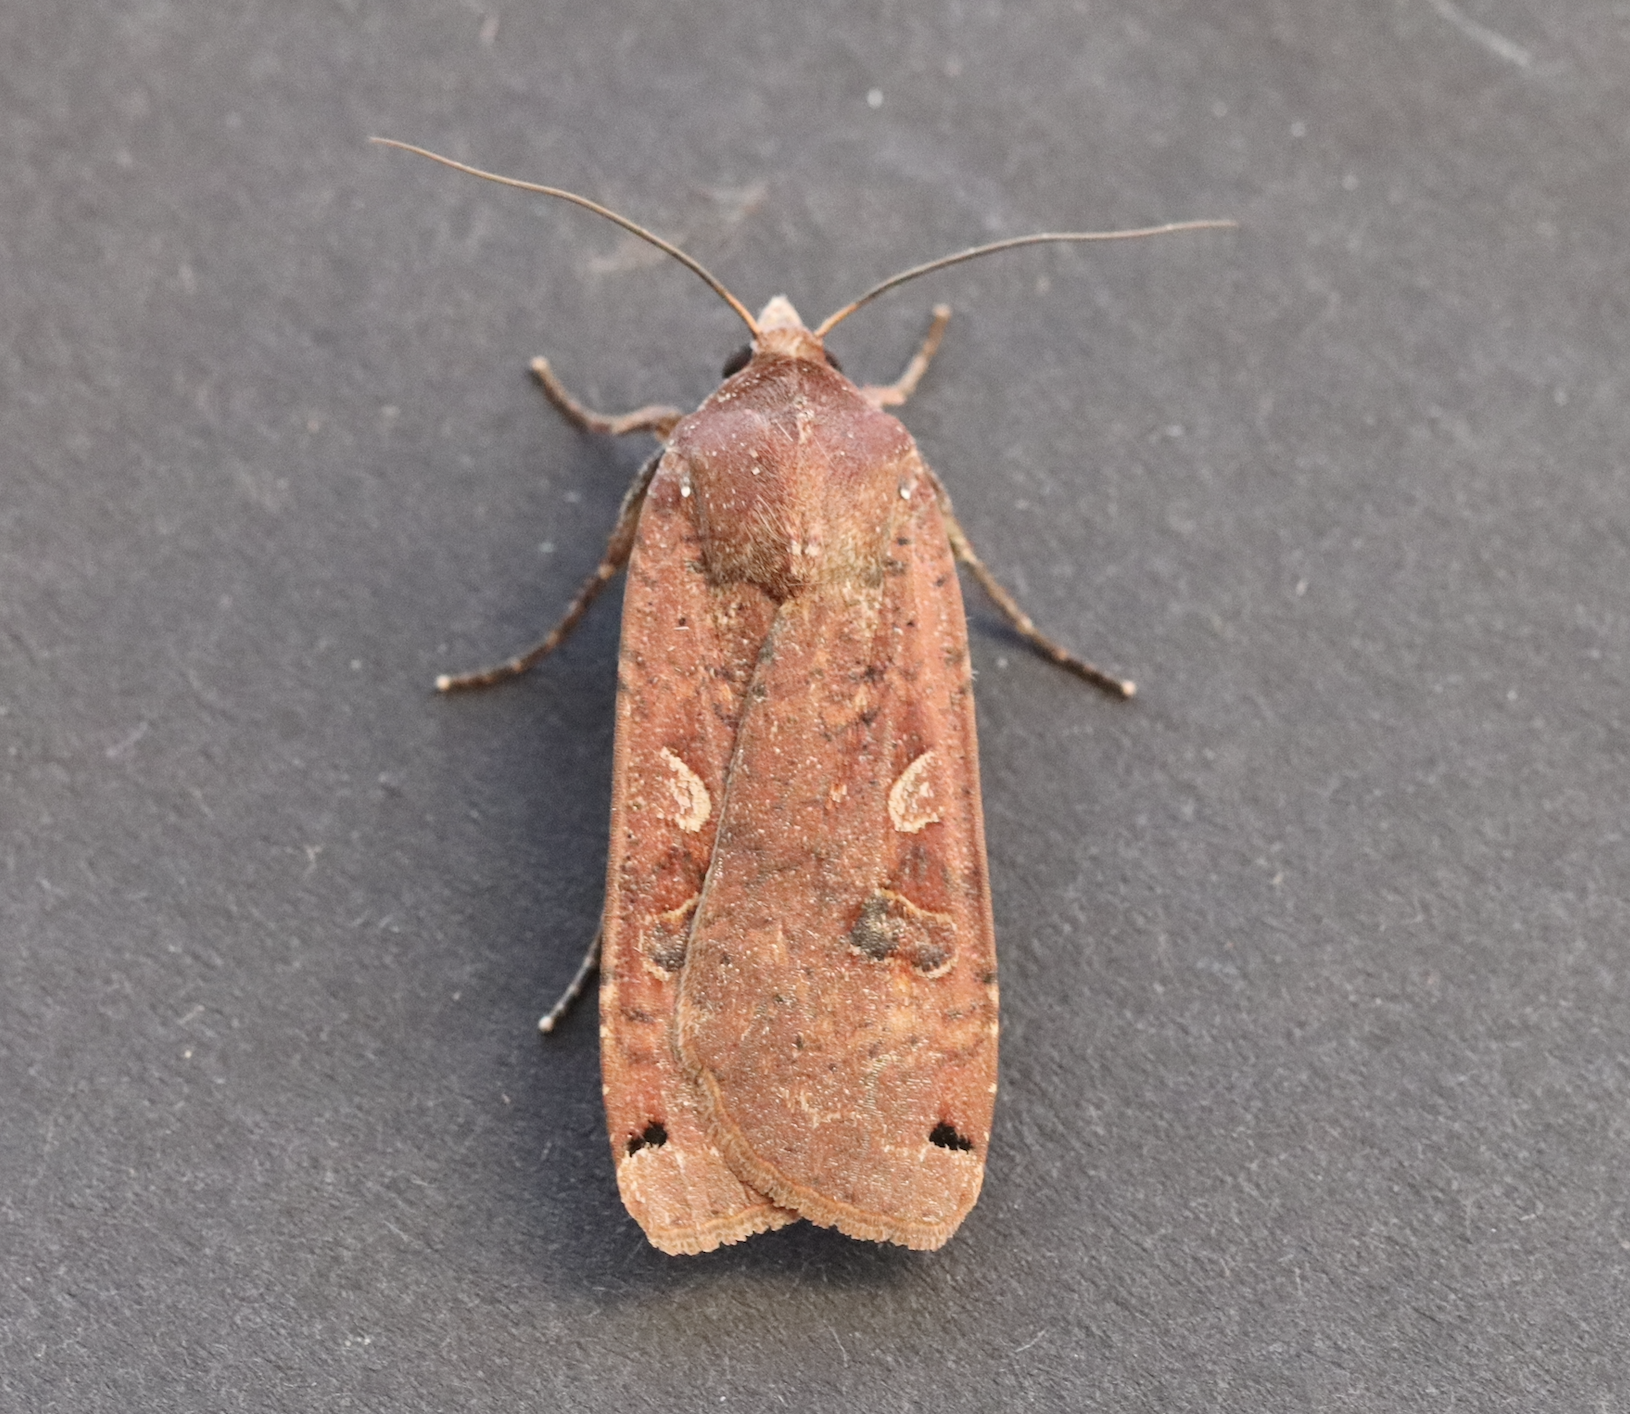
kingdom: Animalia
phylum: Arthropoda
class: Insecta
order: Lepidoptera
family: Noctuidae
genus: Noctua
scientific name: Noctua pronuba
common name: Large yellow underwing
